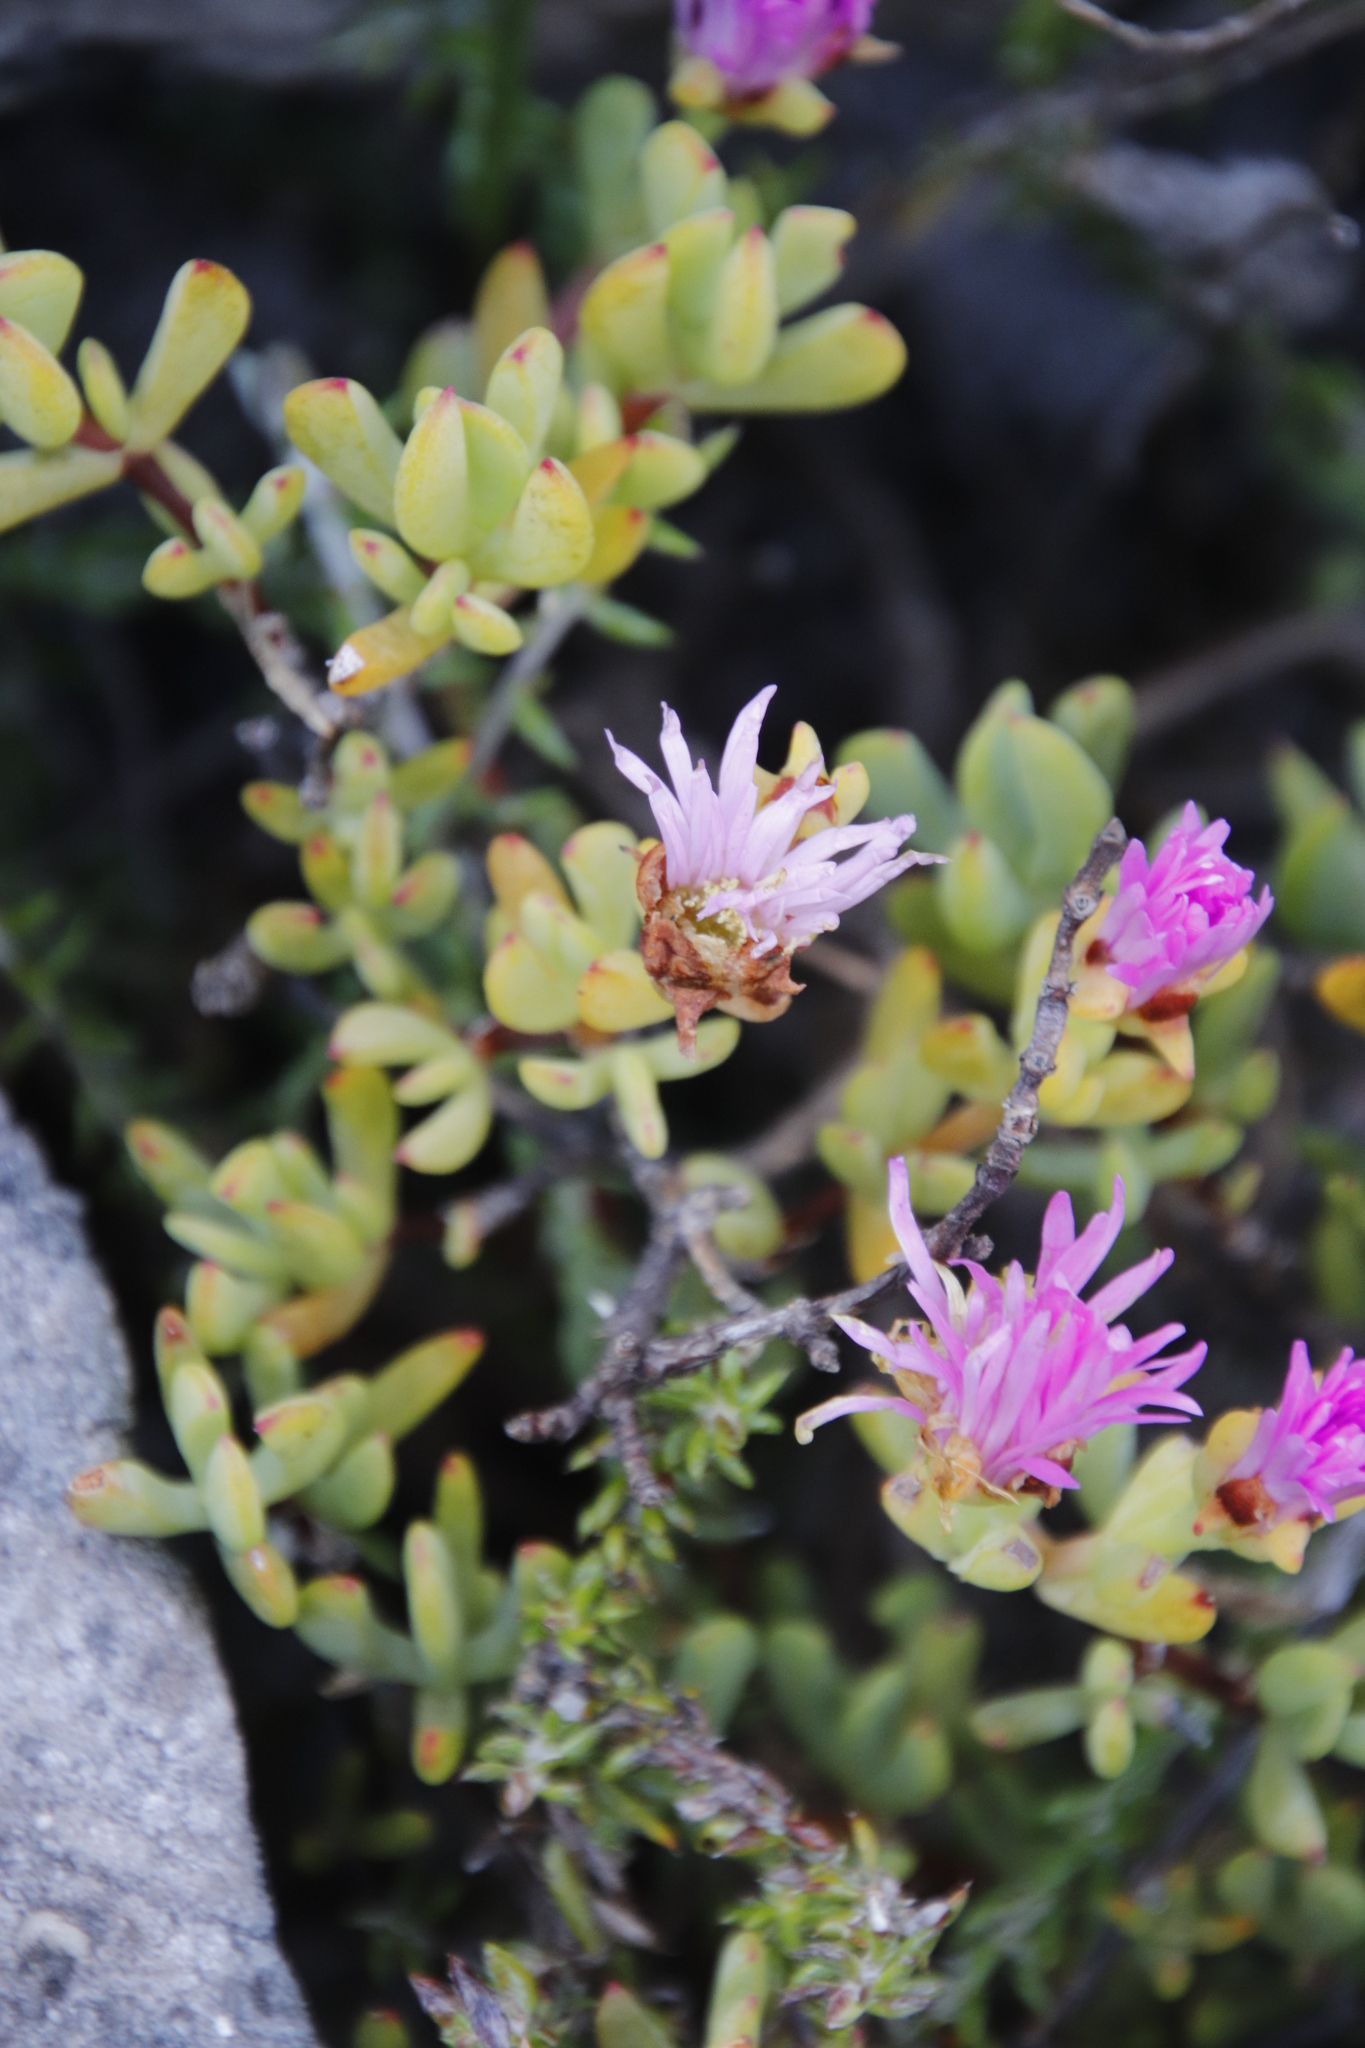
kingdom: Plantae
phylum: Tracheophyta
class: Magnoliopsida
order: Caryophyllales
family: Aizoaceae
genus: Oscularia
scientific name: Oscularia falciformis
